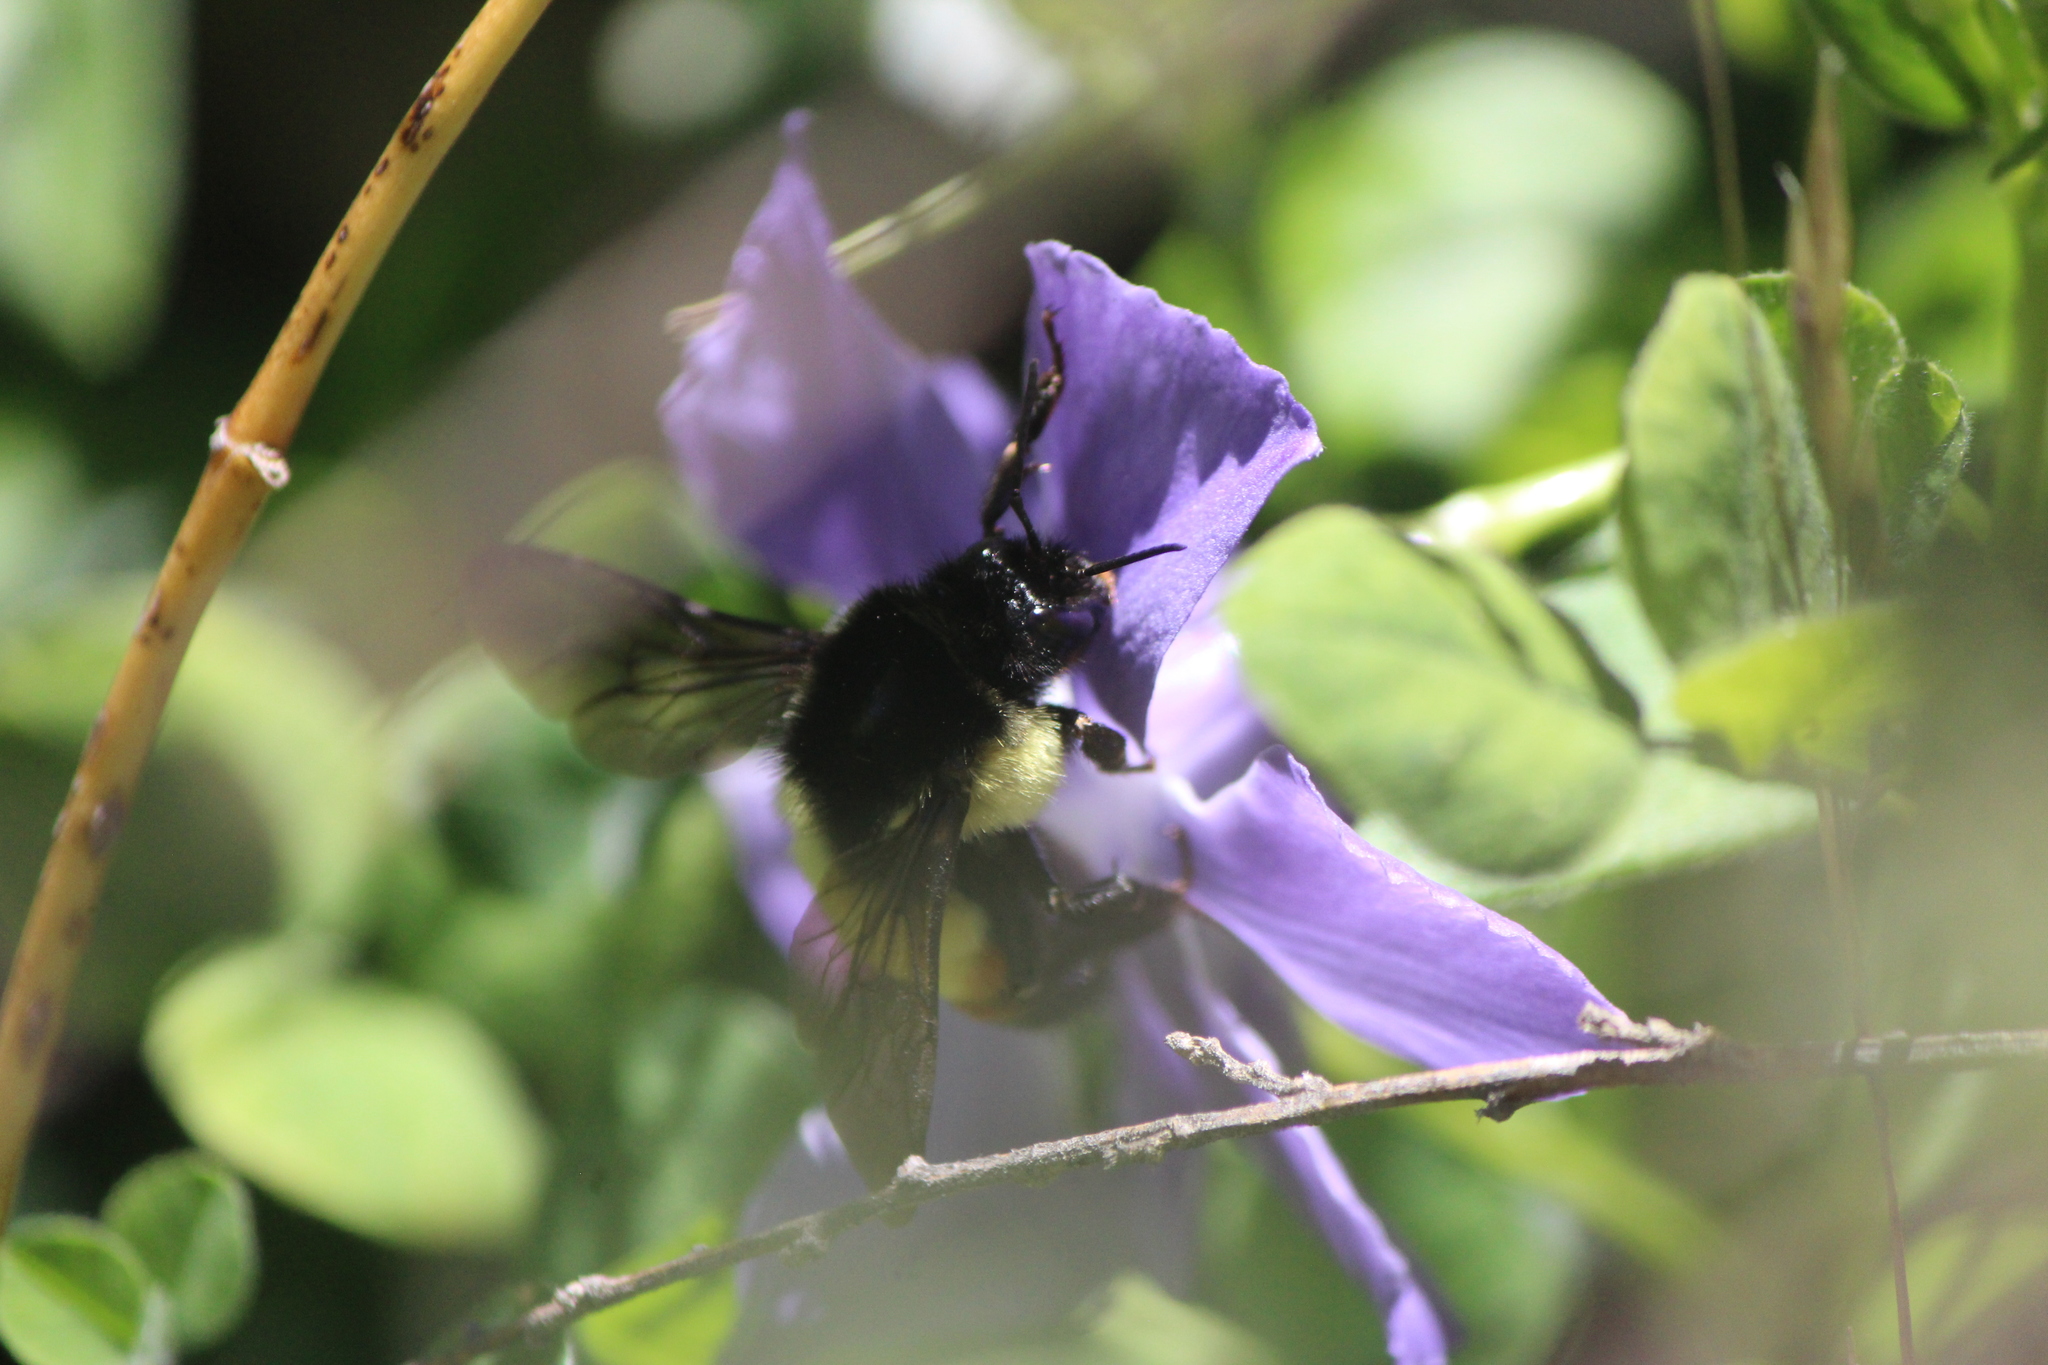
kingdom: Animalia
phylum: Arthropoda
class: Insecta
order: Hymenoptera
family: Apidae
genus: Bombus
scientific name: Bombus ephippiatus
